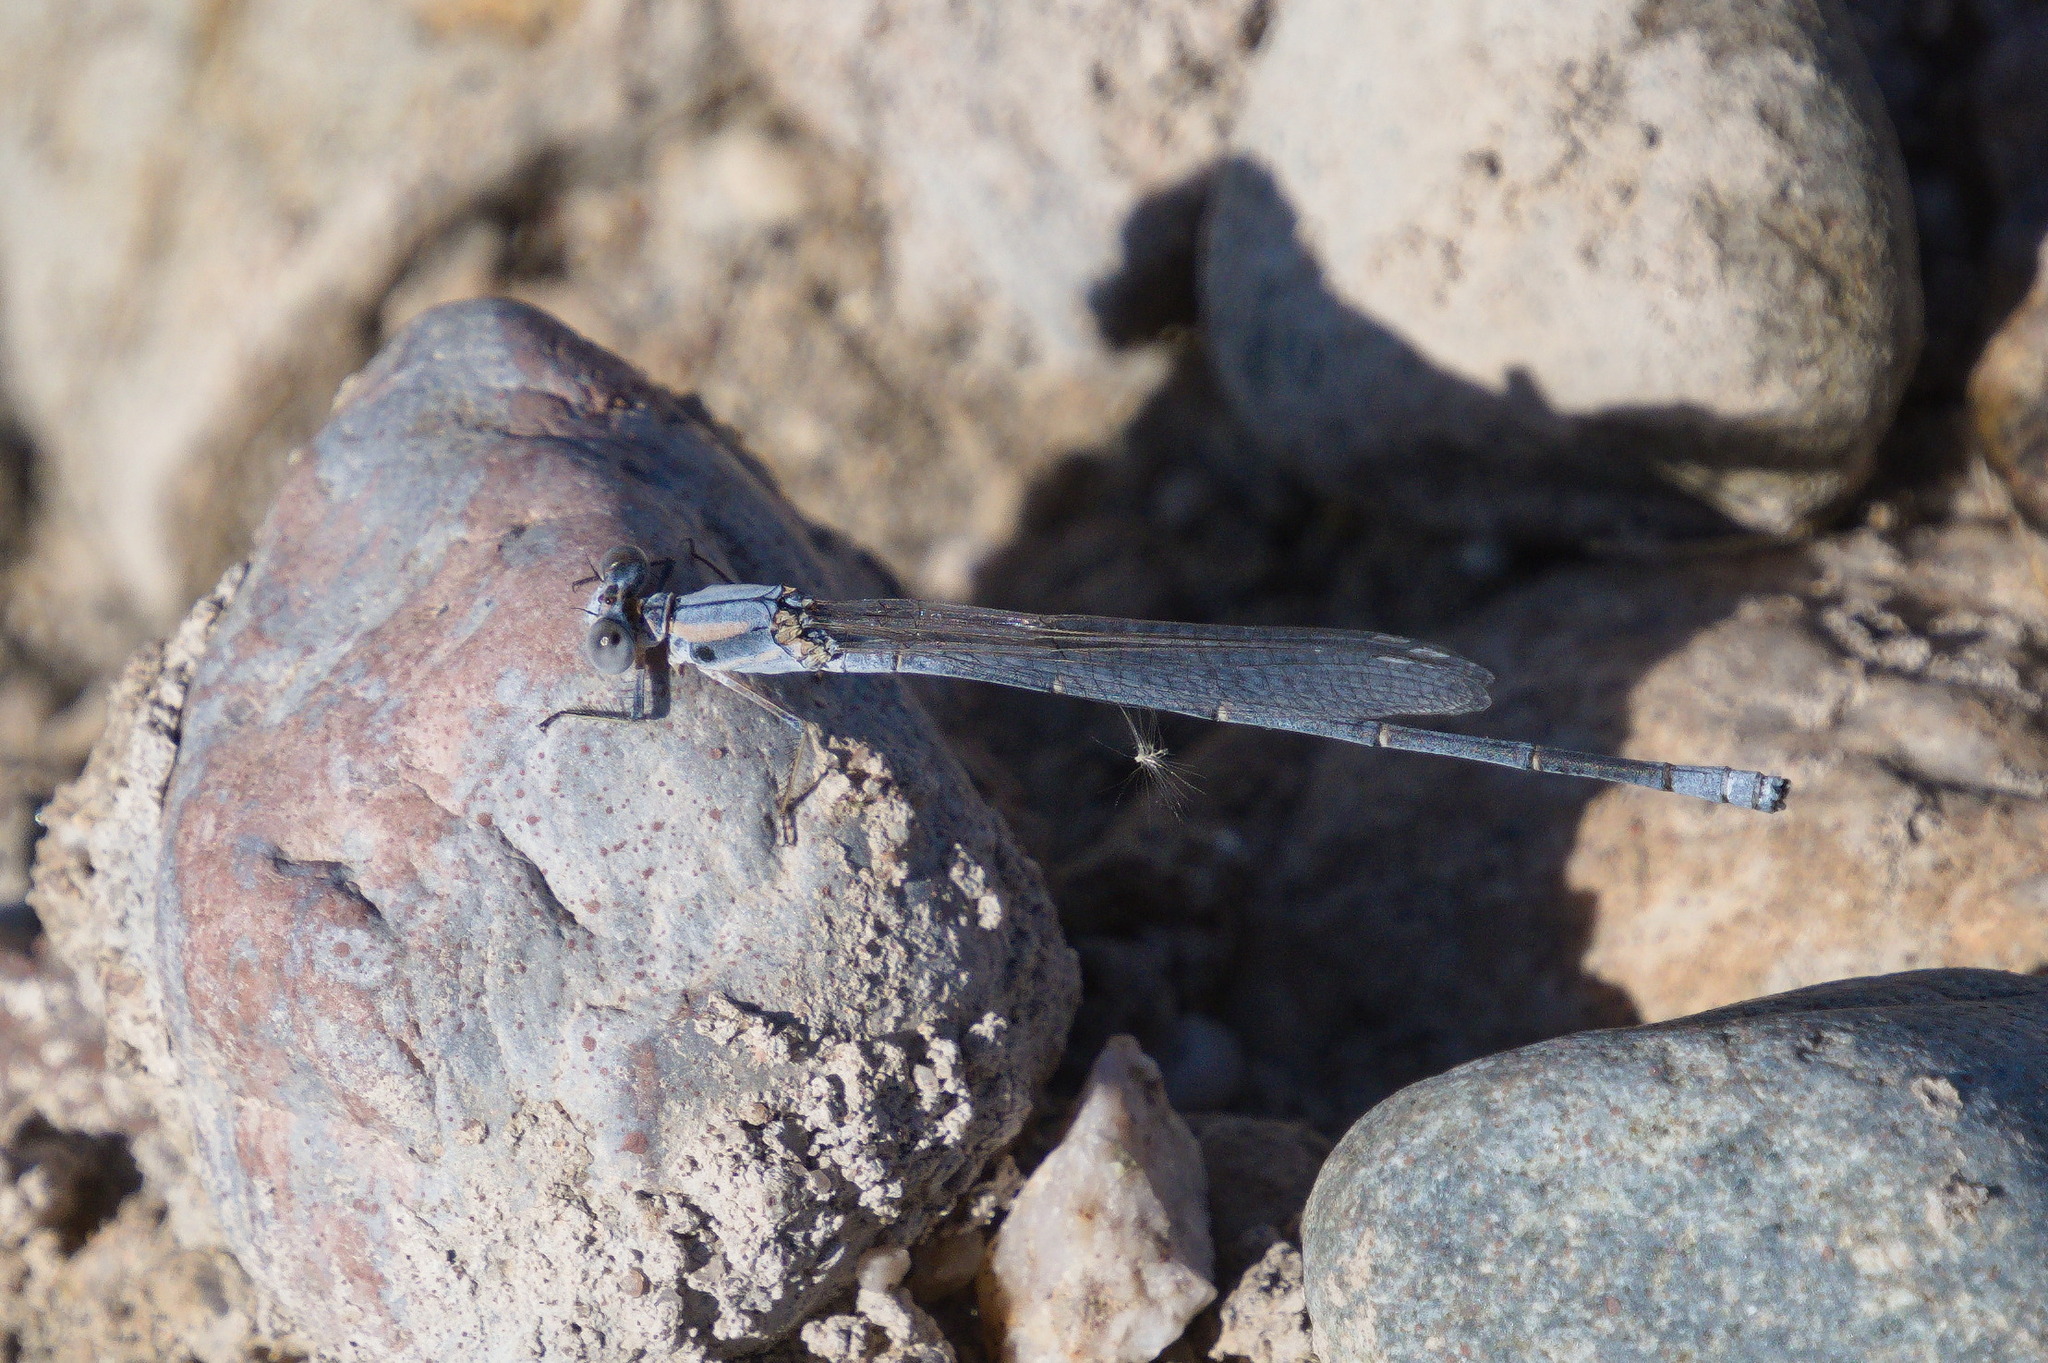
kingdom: Animalia
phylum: Arthropoda
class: Insecta
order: Odonata
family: Coenagrionidae
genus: Argia
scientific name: Argia moesta
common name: Powdered dancer
